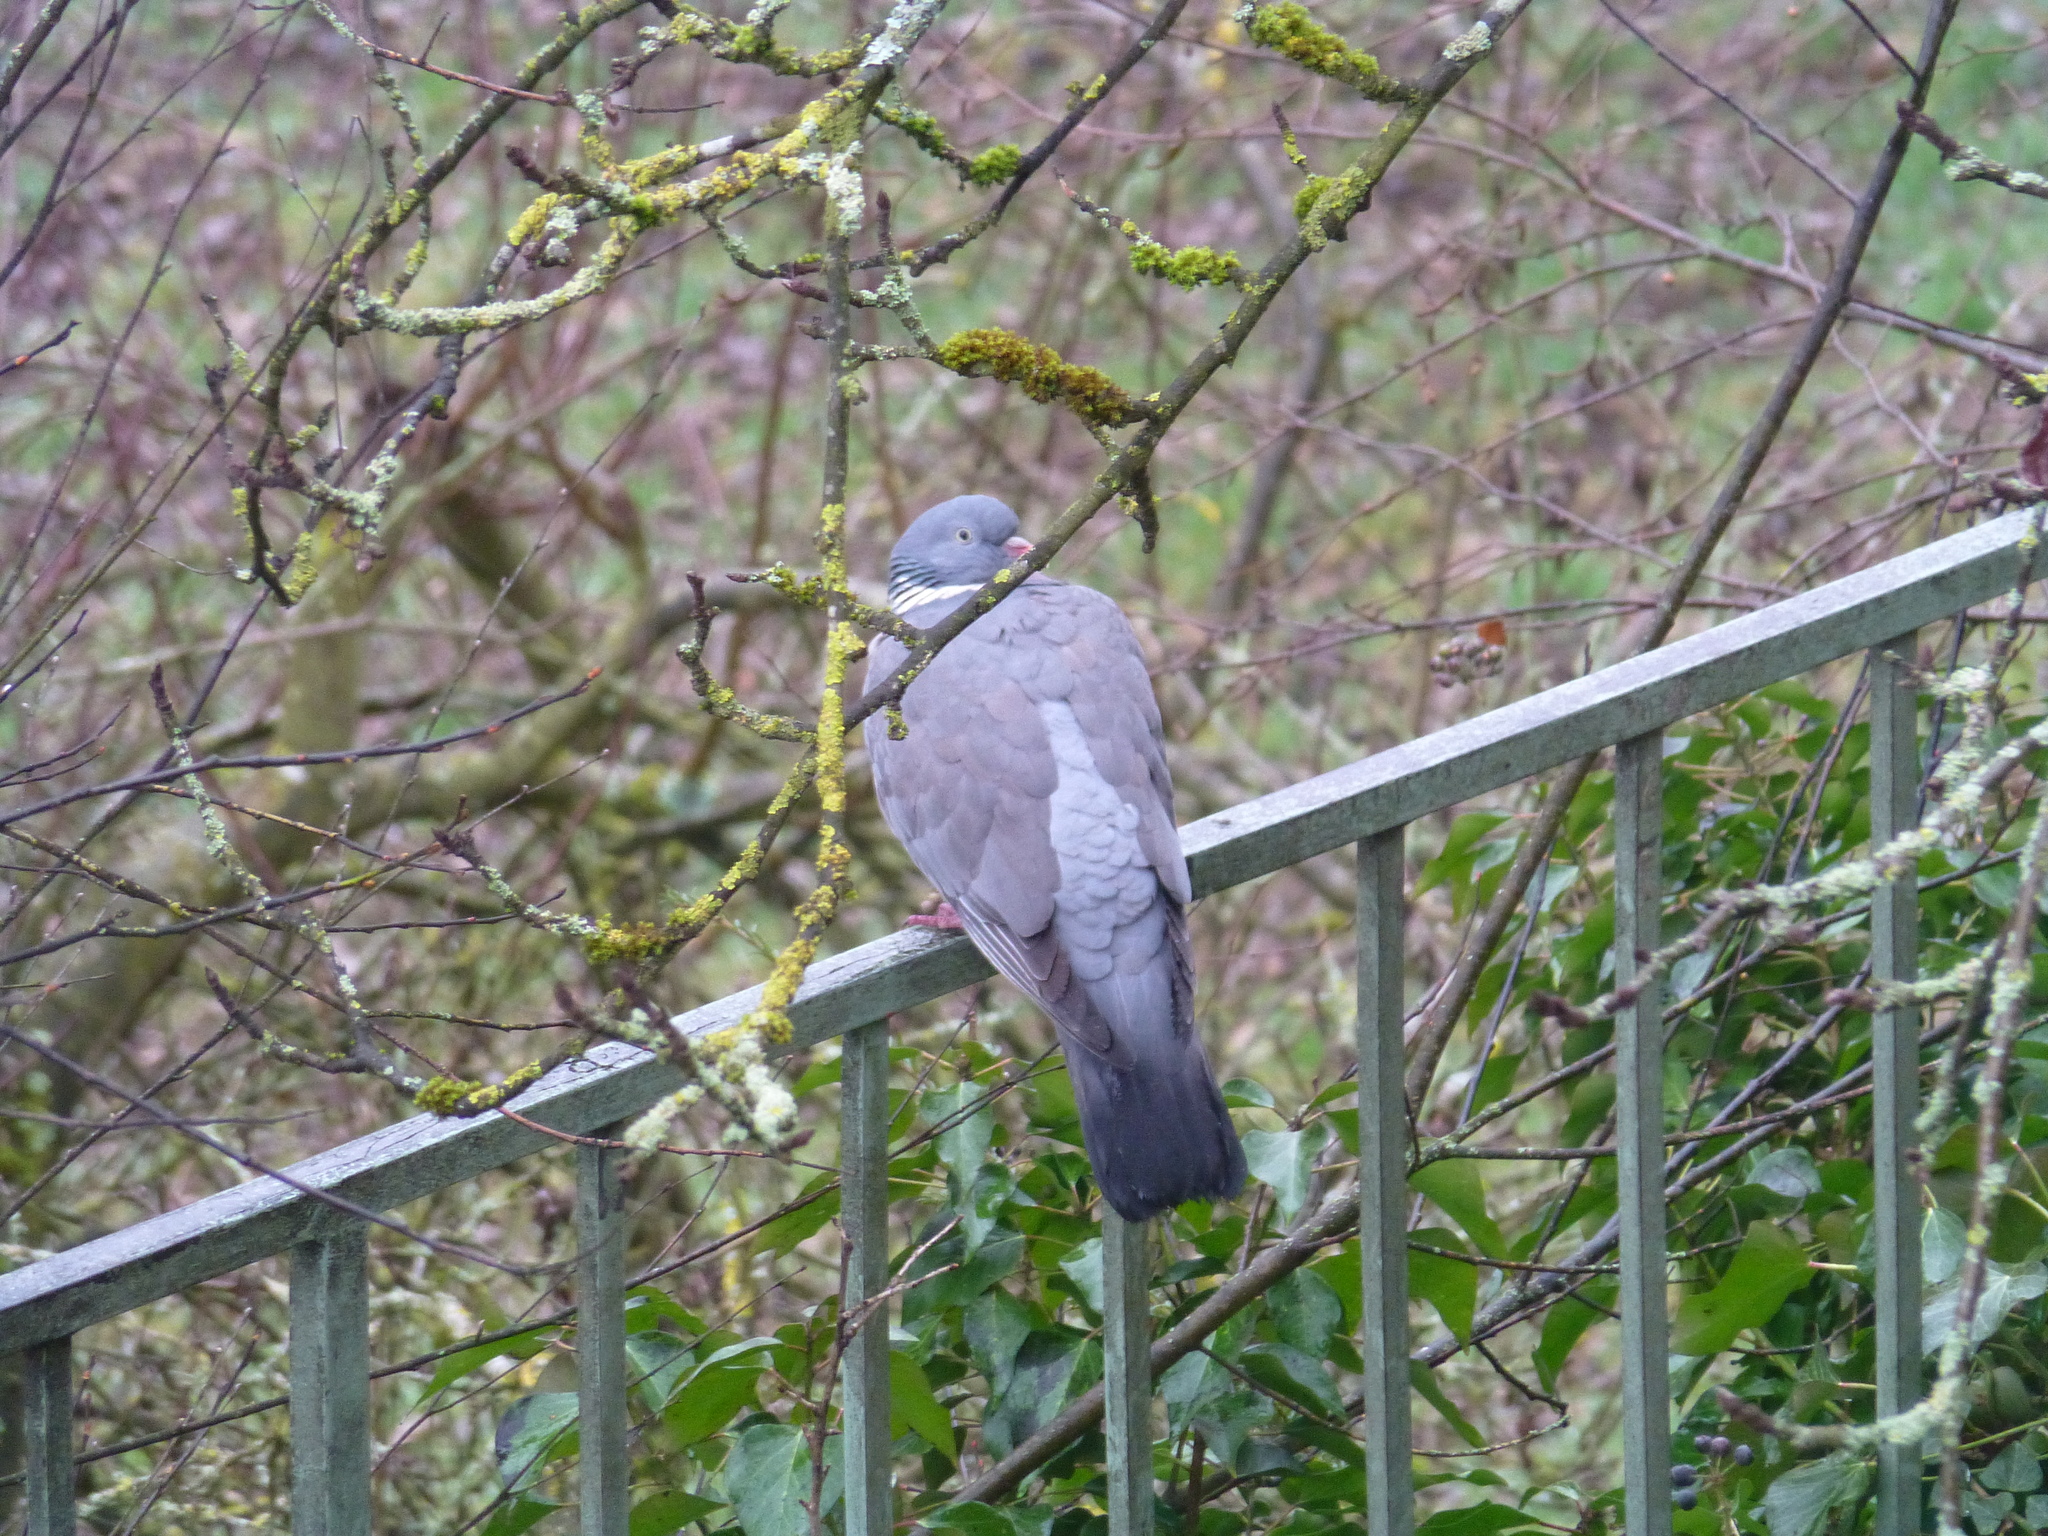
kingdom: Animalia
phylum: Chordata
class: Aves
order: Columbiformes
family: Columbidae
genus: Columba
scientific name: Columba palumbus
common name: Common wood pigeon
